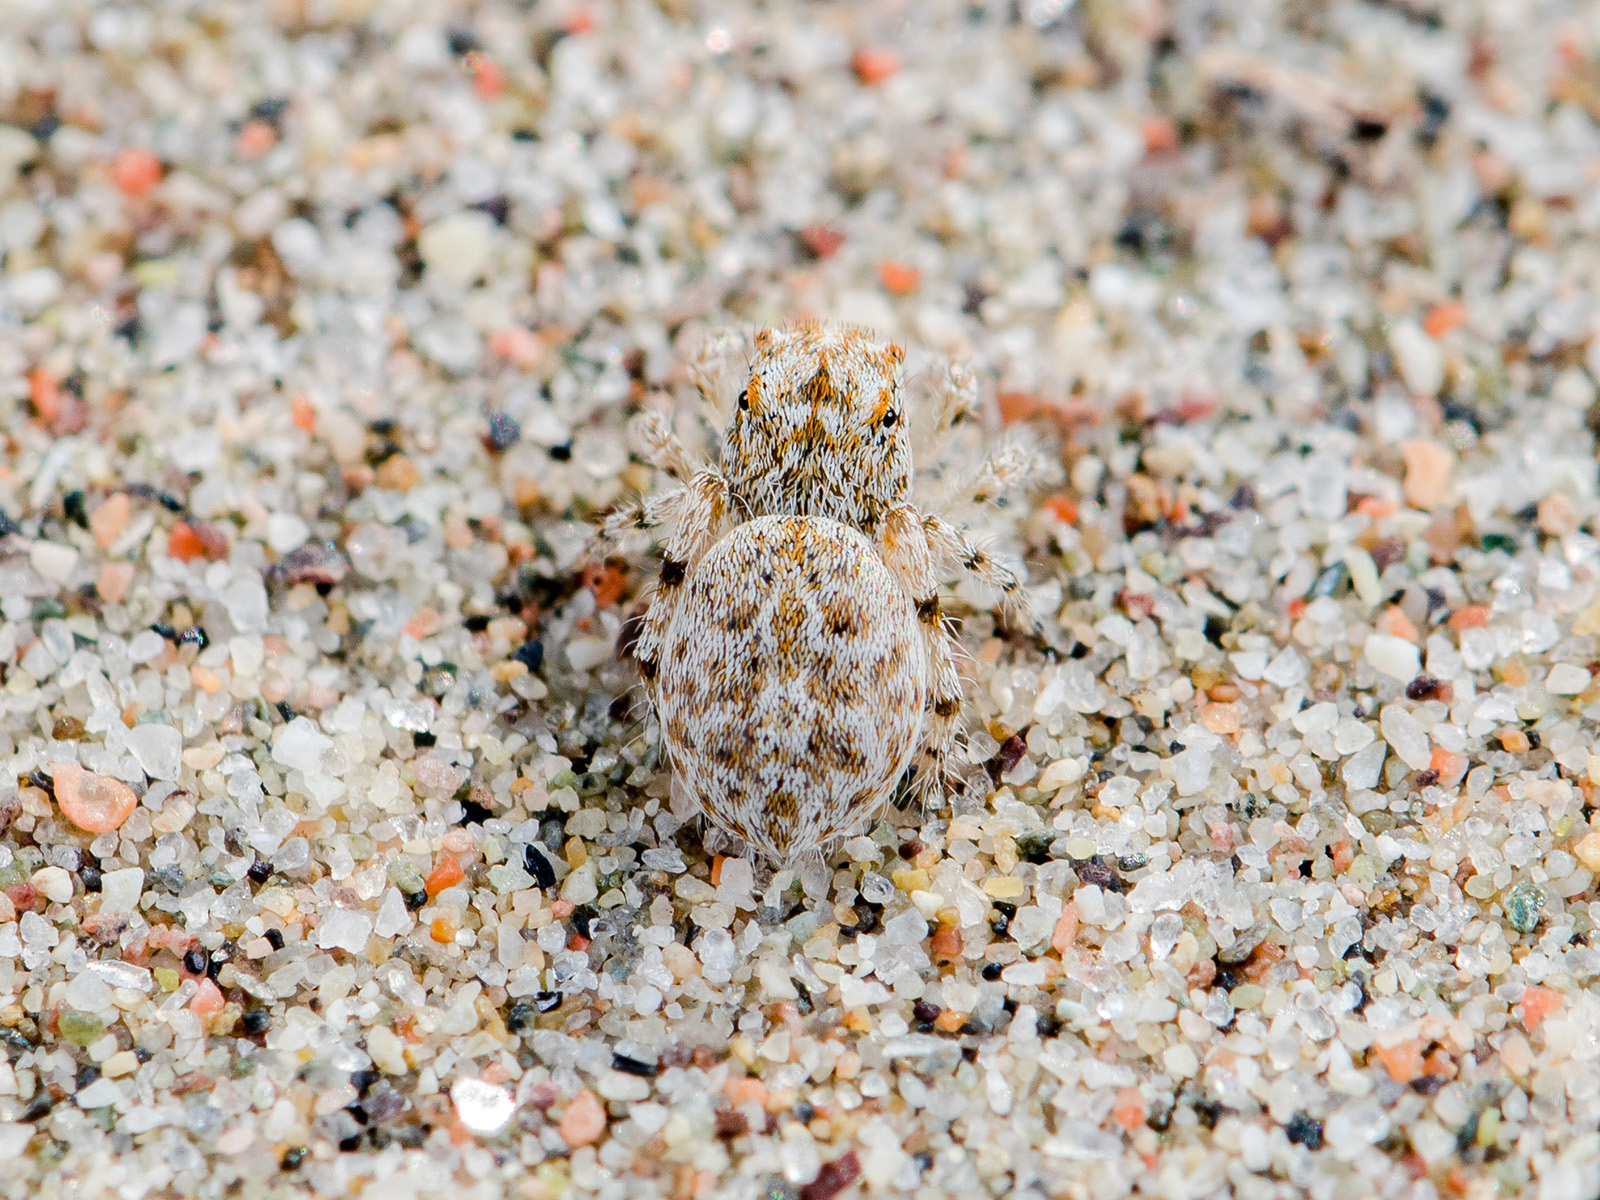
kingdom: Animalia
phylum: Arthropoda
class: Arachnida
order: Araneae
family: Salticidae
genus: Yllenus
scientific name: Yllenus uiguricus
